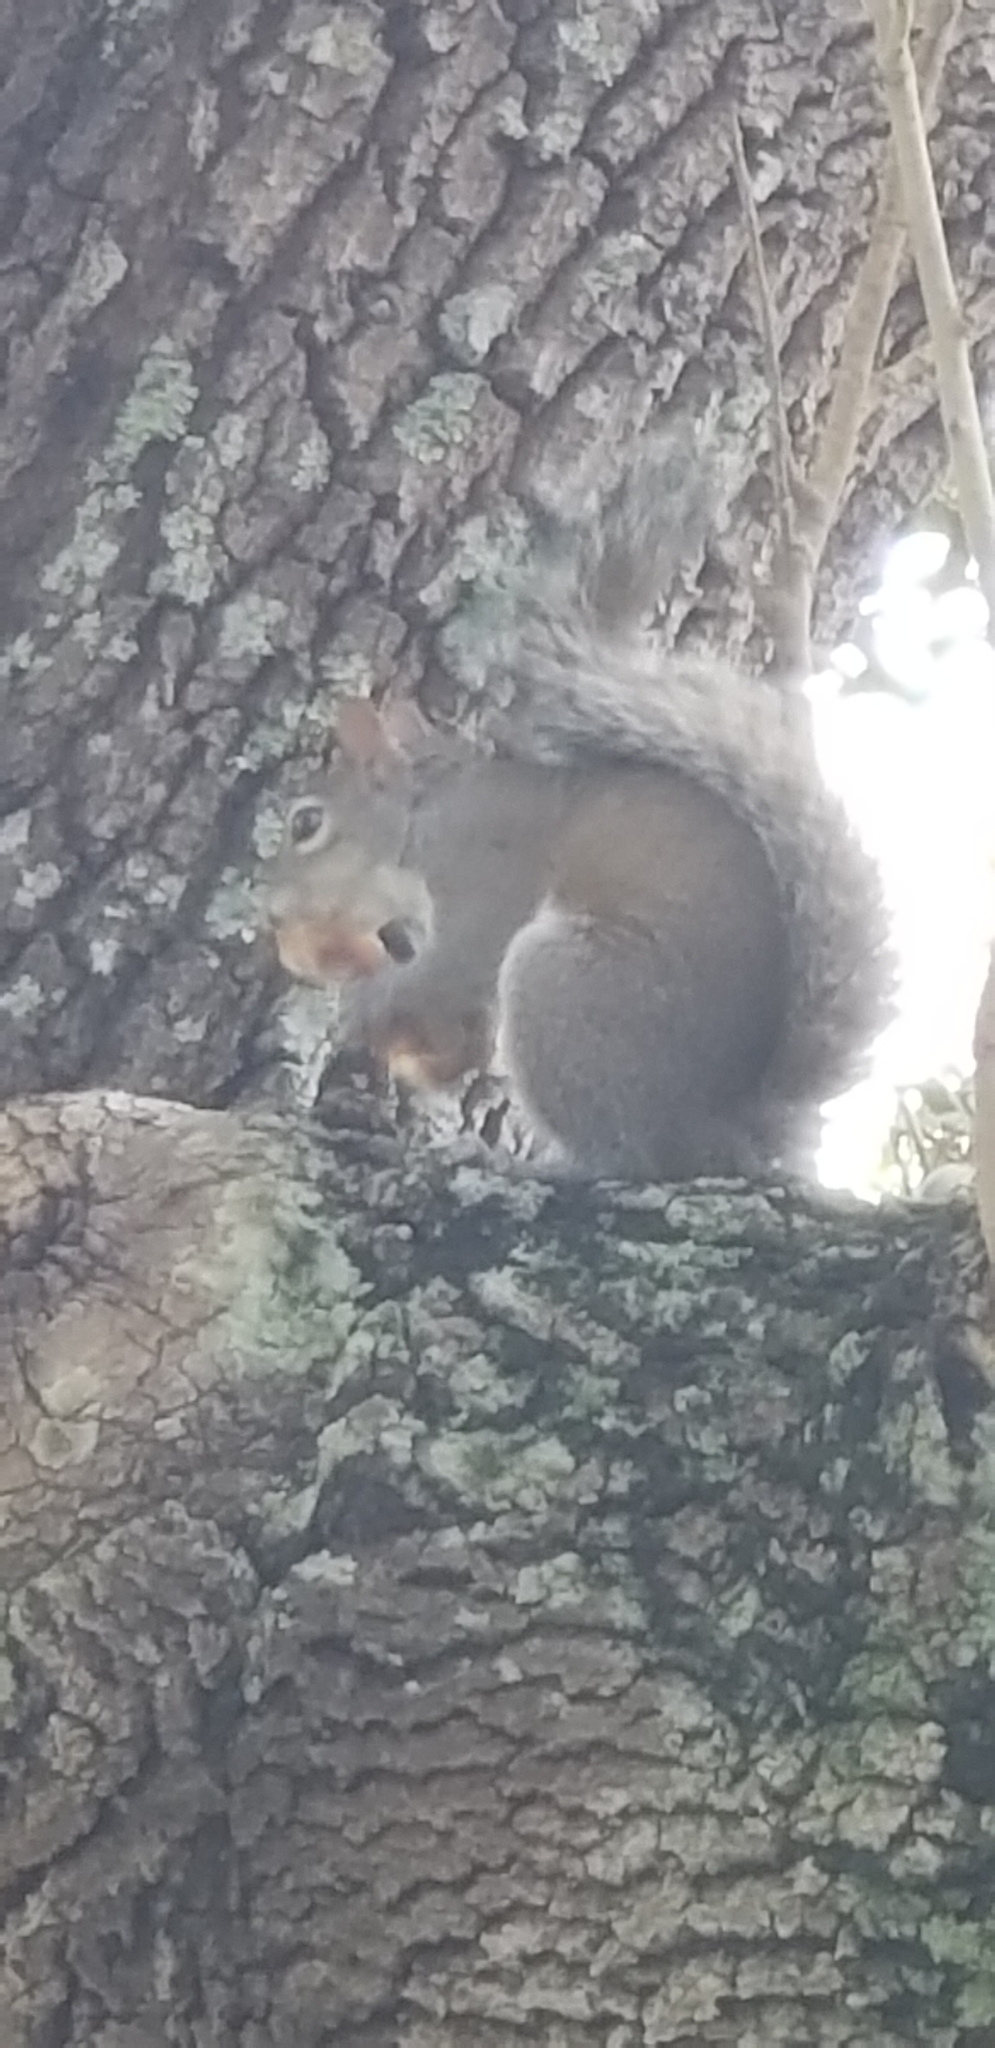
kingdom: Animalia
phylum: Chordata
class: Mammalia
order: Rodentia
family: Sciuridae
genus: Sciurus
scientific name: Sciurus carolinensis
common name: Eastern gray squirrel
